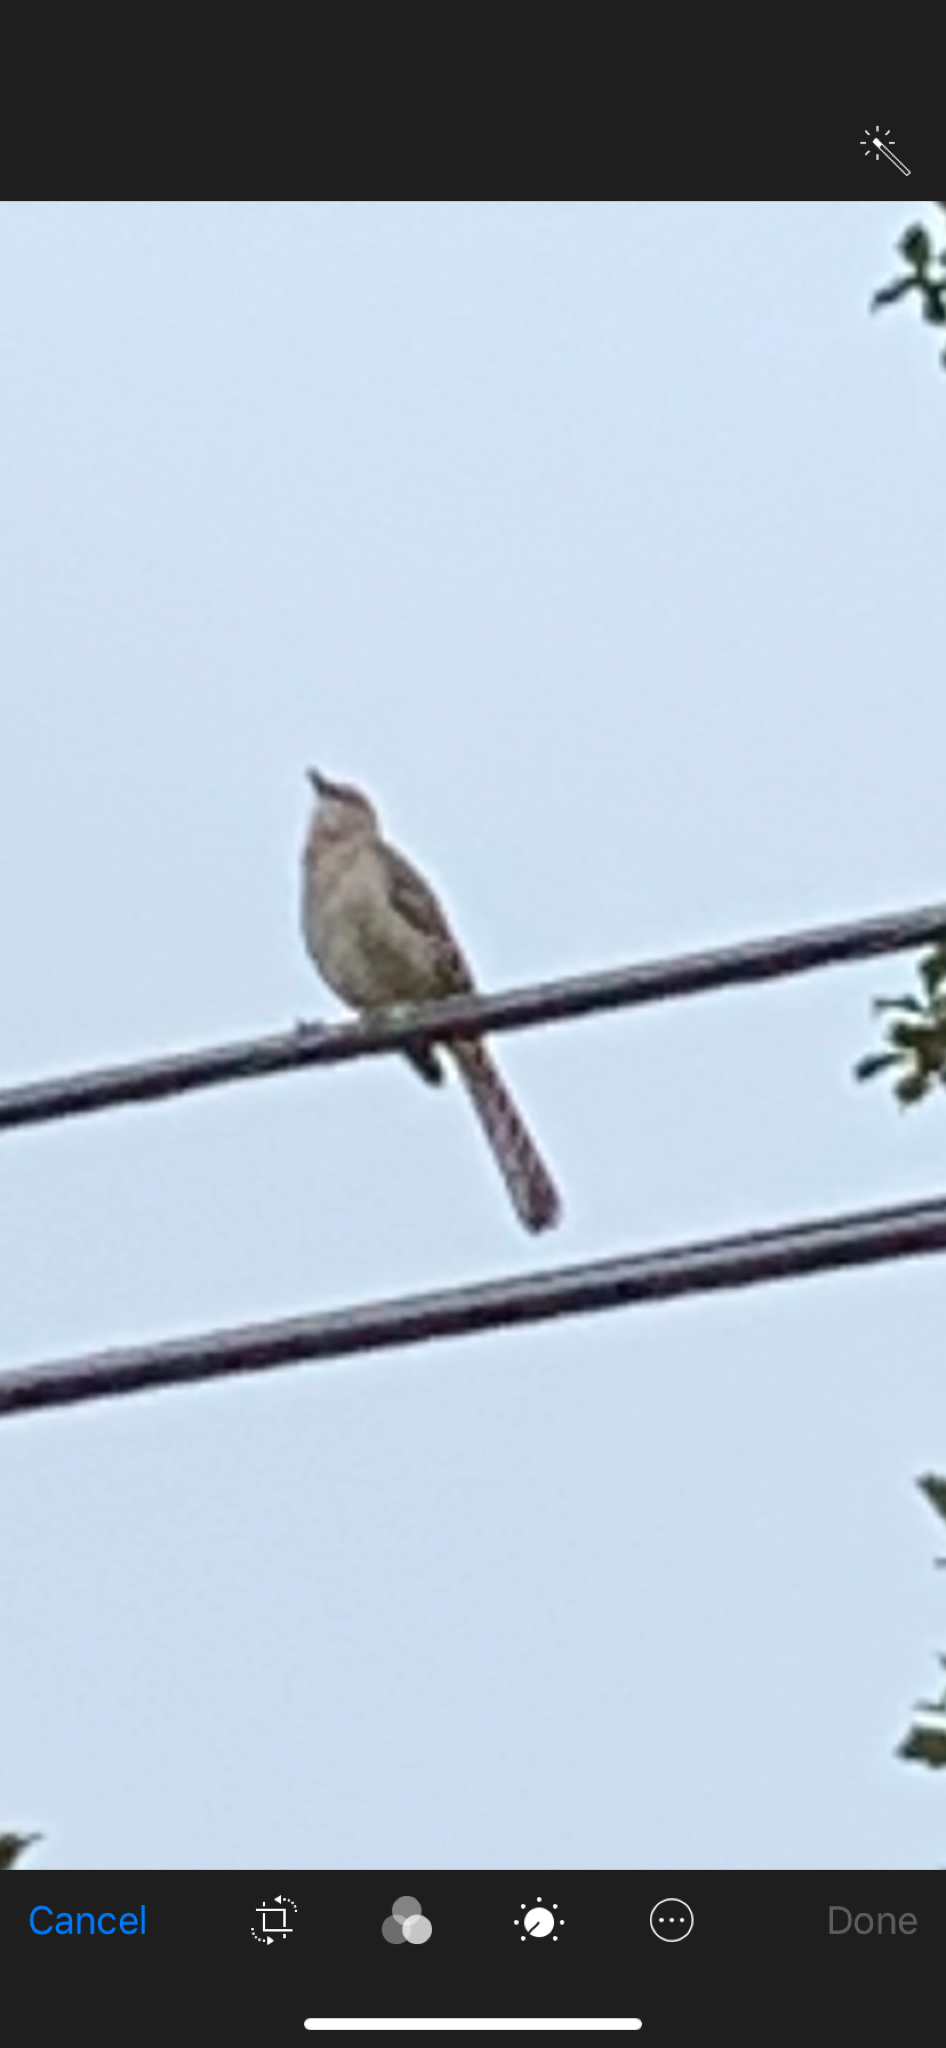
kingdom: Animalia
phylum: Chordata
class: Aves
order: Passeriformes
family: Mimidae
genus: Mimus
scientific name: Mimus polyglottos
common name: Northern mockingbird
